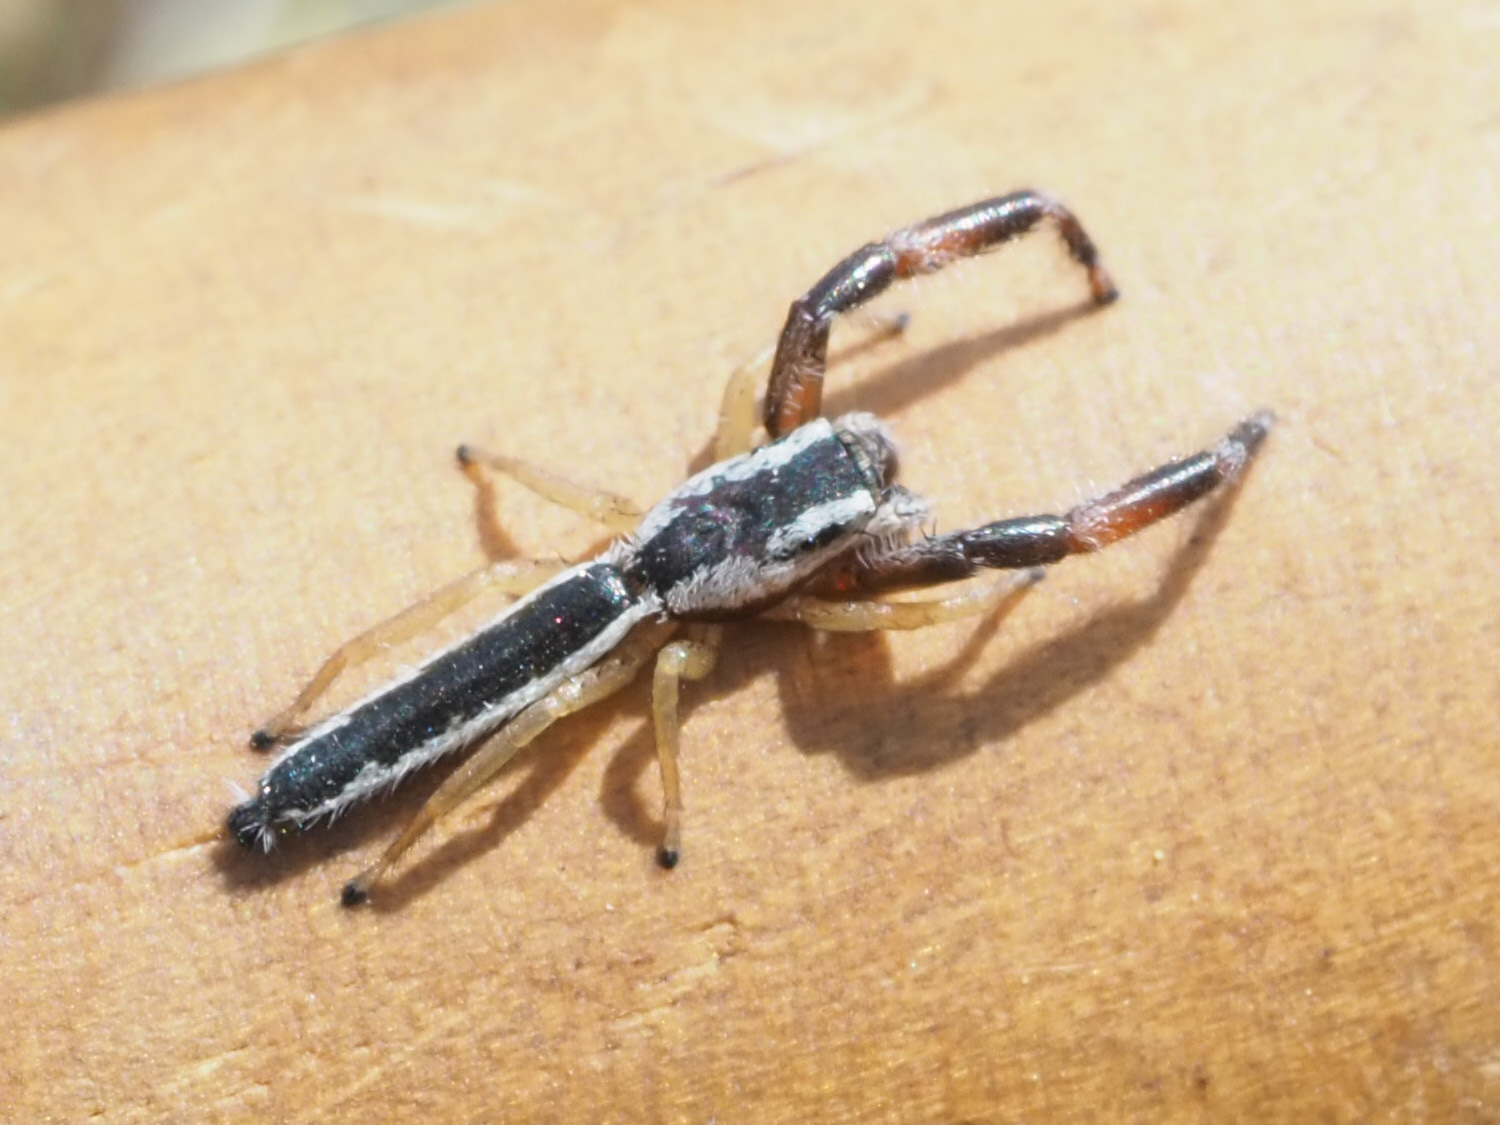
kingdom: Animalia
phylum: Arthropoda
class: Arachnida
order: Araneae
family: Salticidae
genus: Marpissa
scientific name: Marpissa pikei
